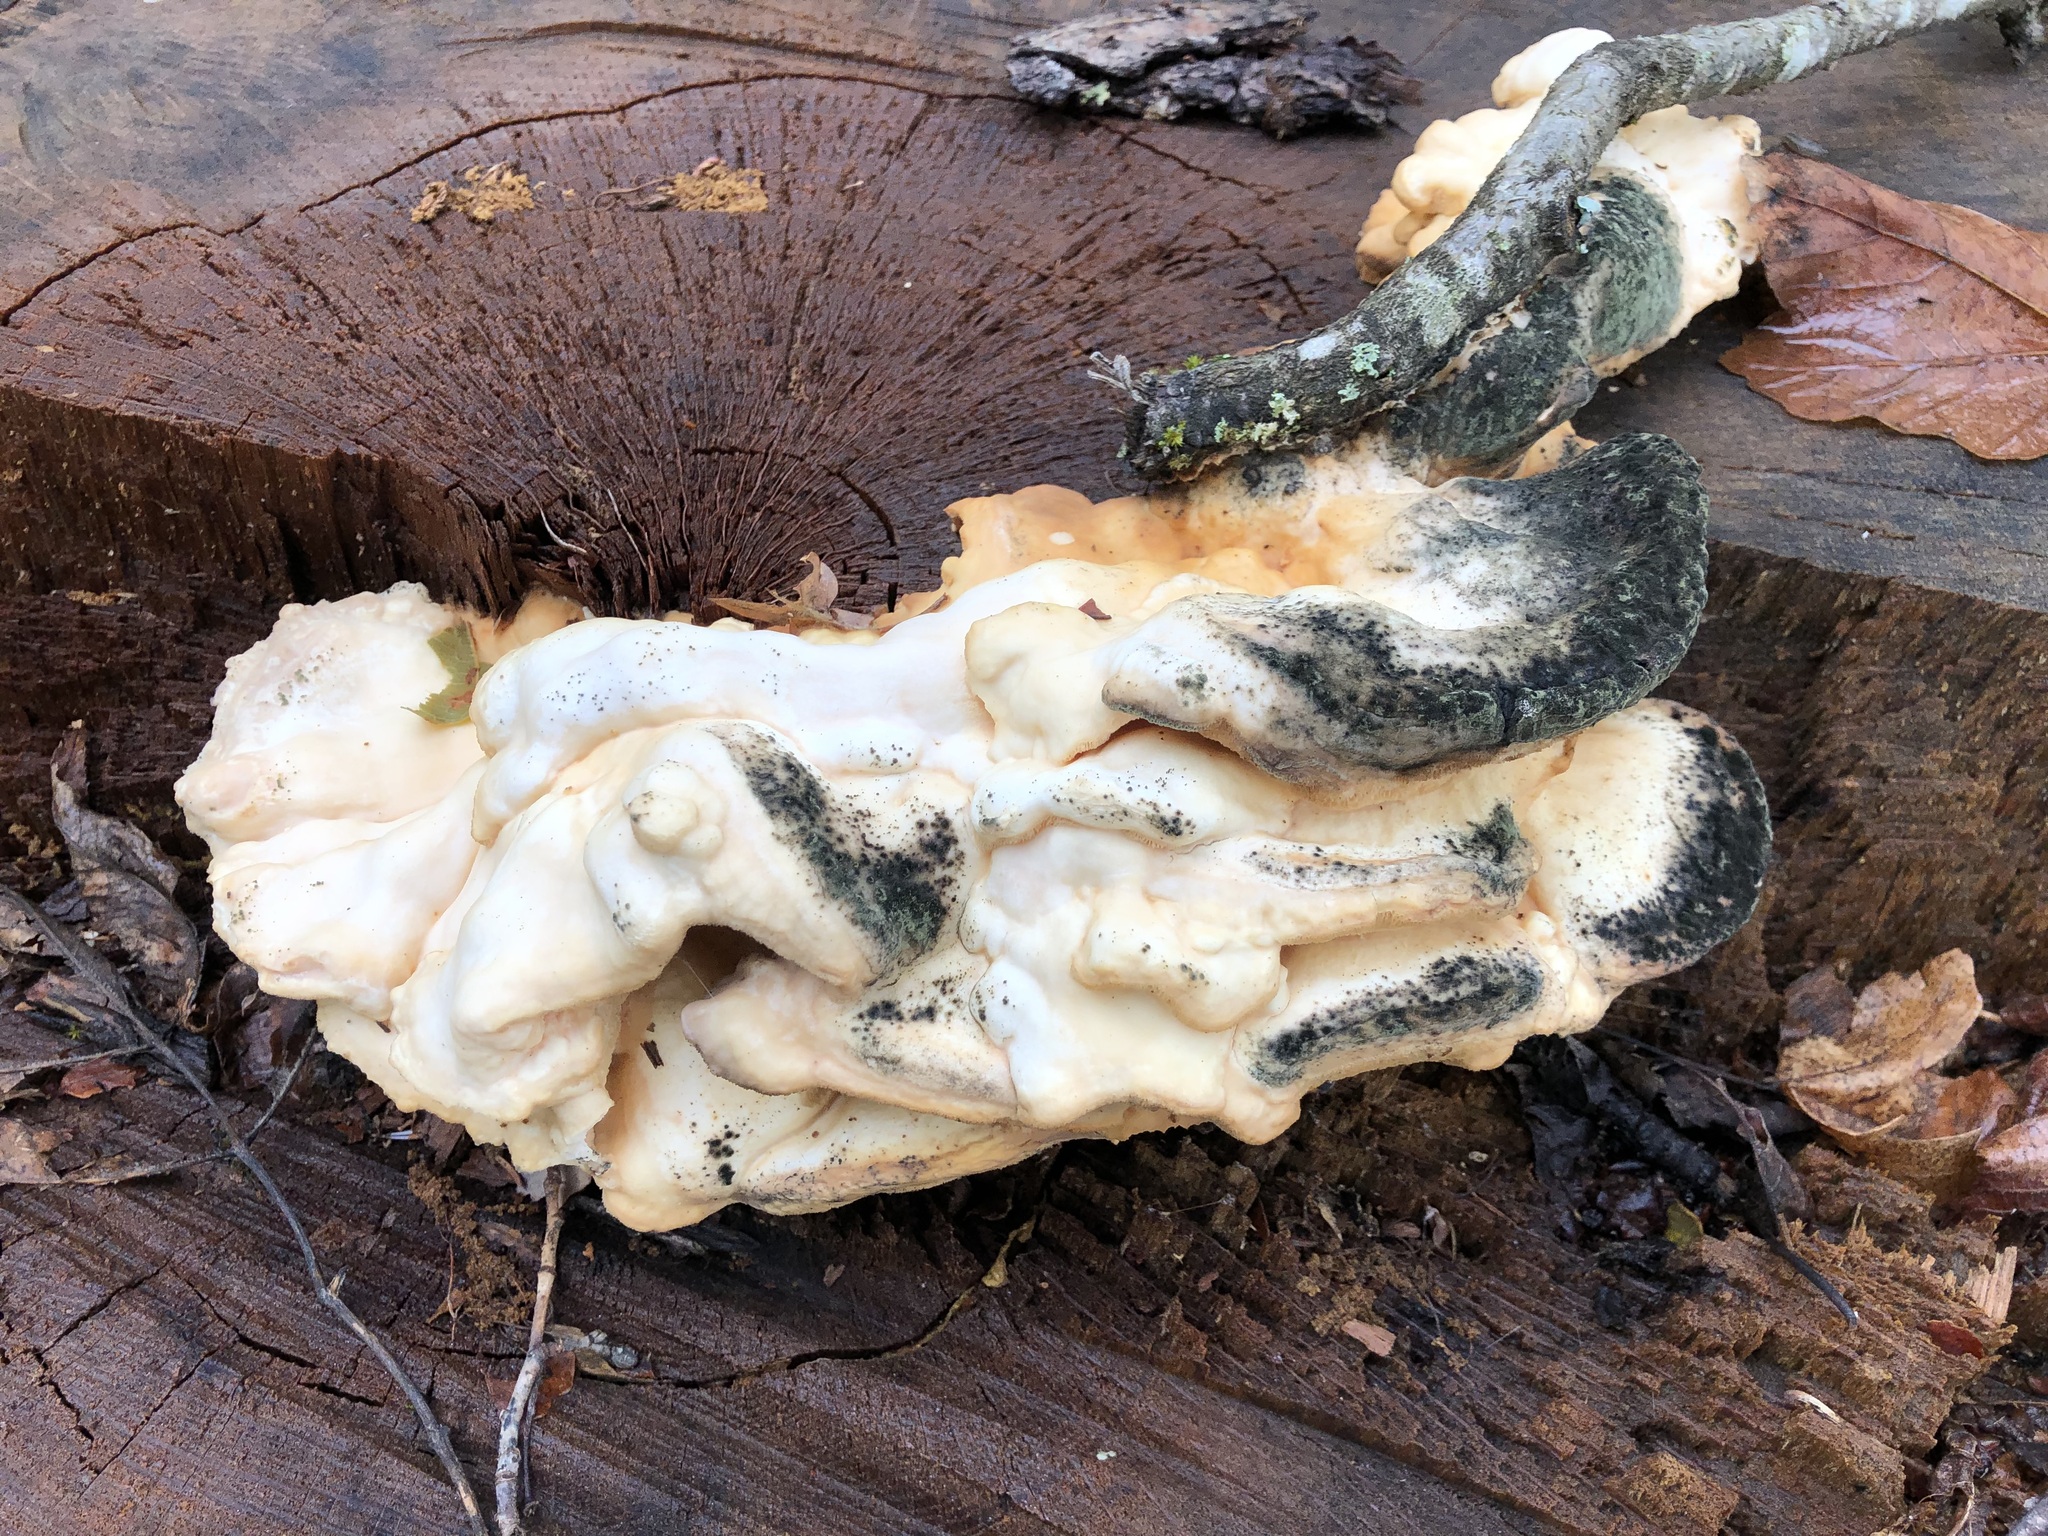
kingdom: Fungi
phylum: Basidiomycota
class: Agaricomycetes
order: Polyporales
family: Laetiporaceae
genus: Laetiporus
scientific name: Laetiporus sulphureus
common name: Chicken of the woods
